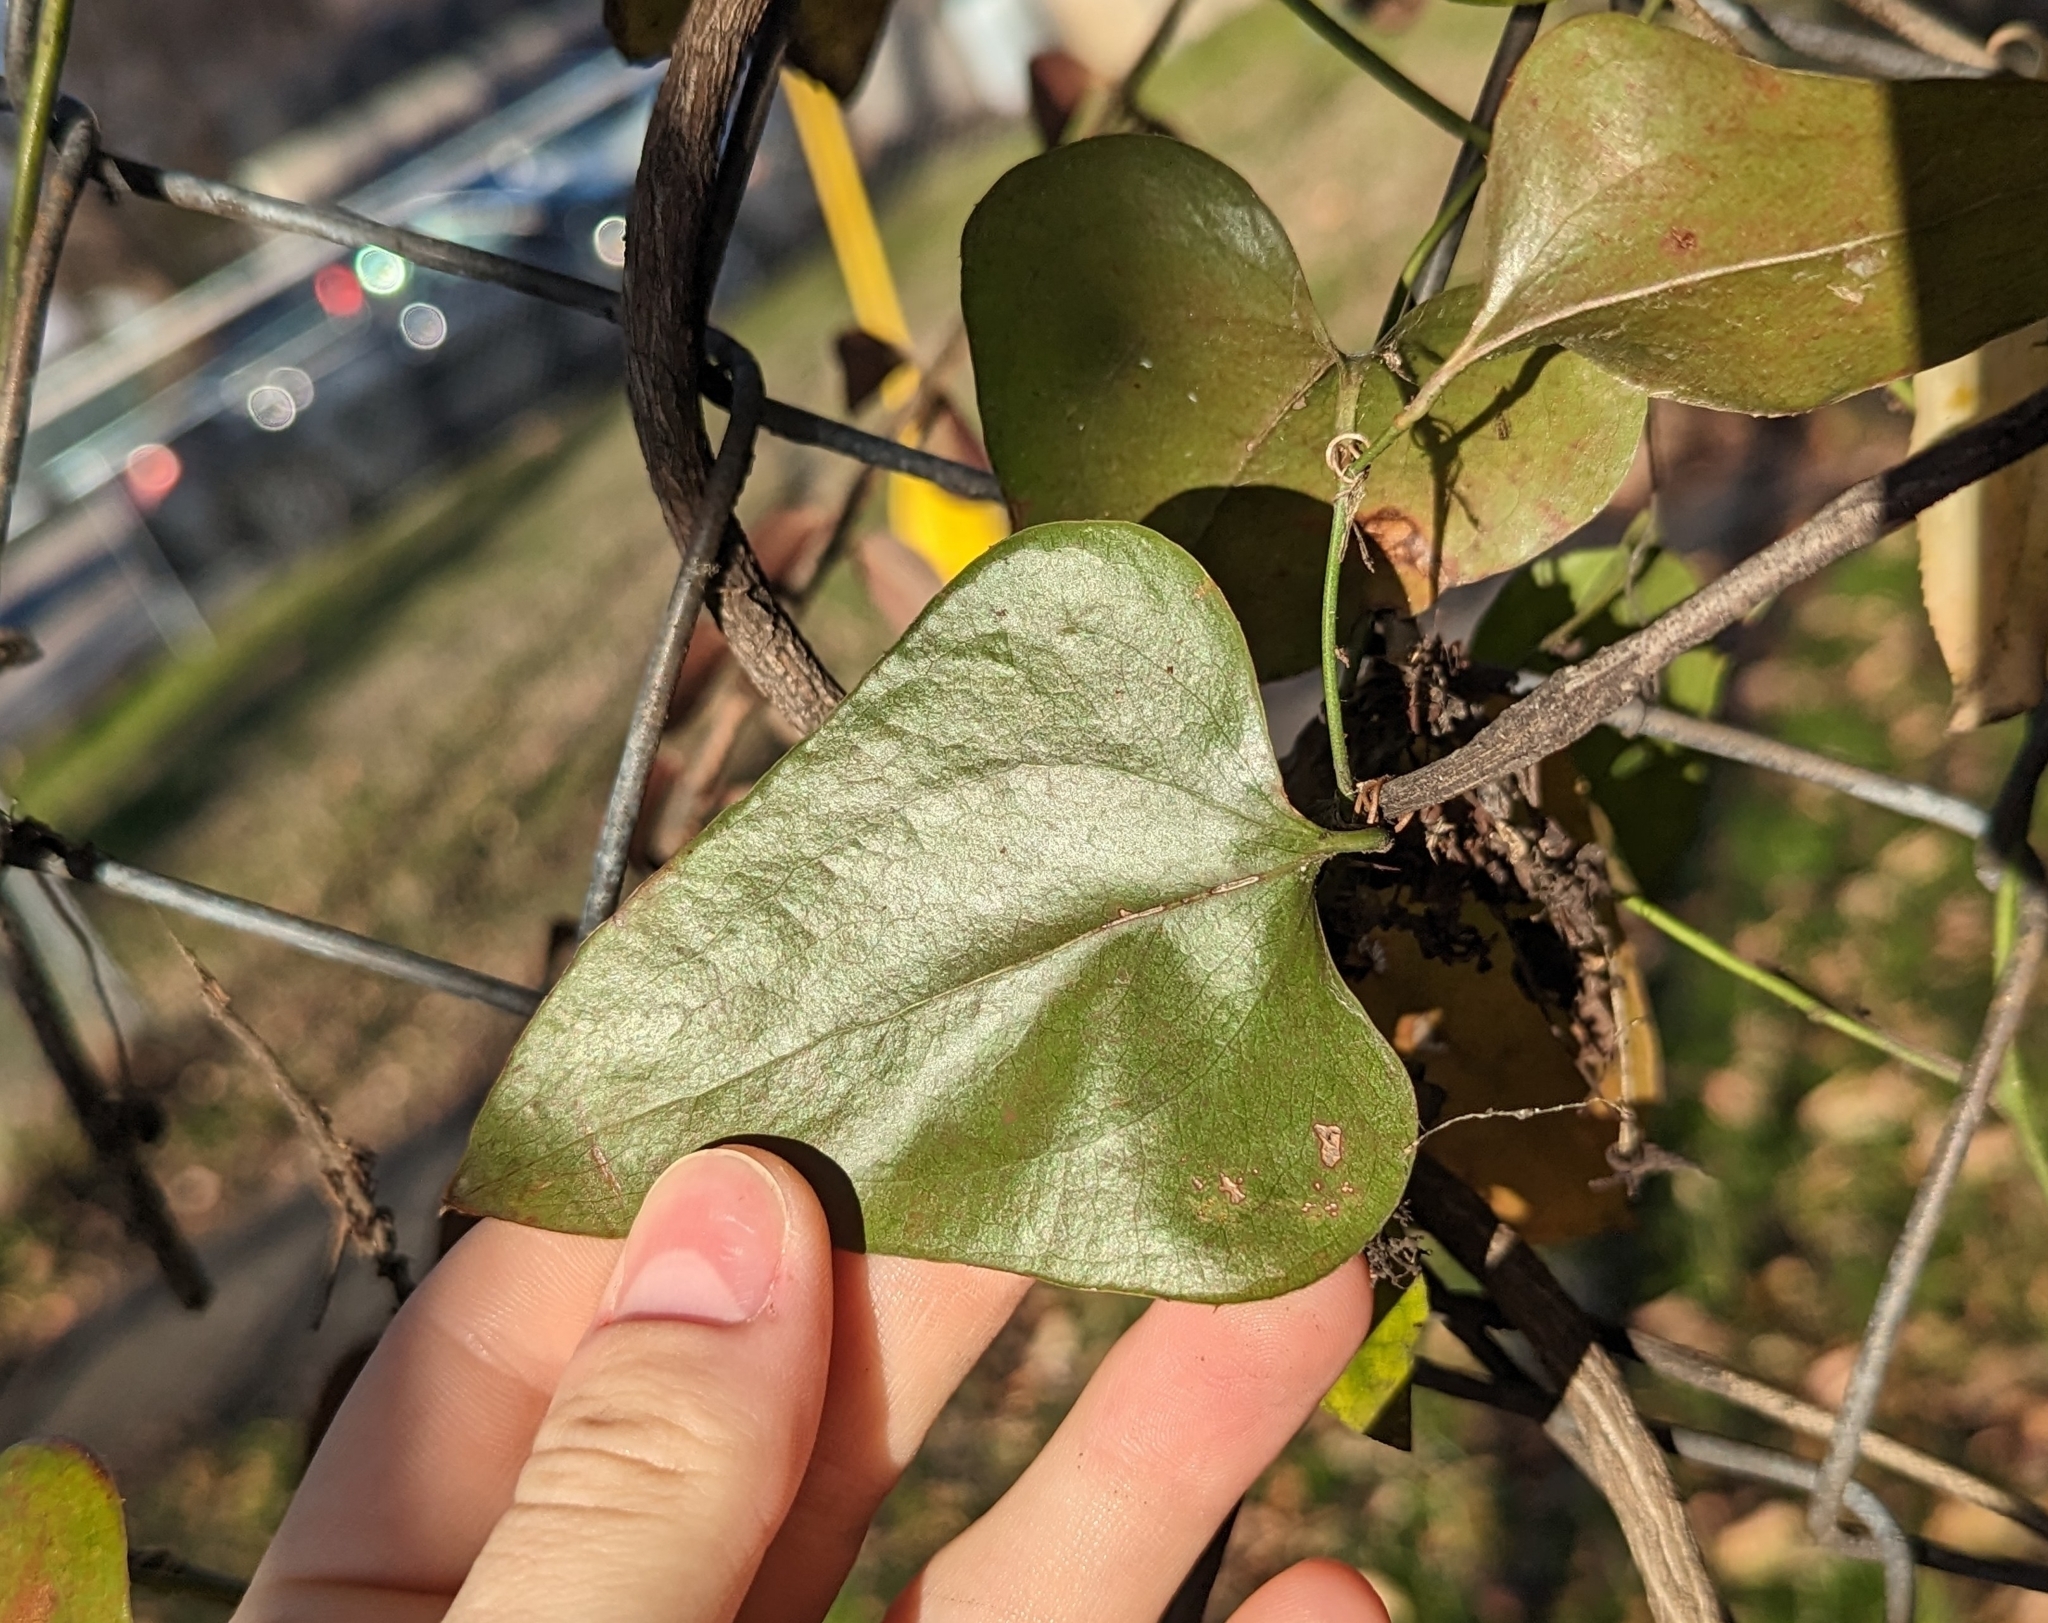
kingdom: Plantae
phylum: Tracheophyta
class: Liliopsida
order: Liliales
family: Smilacaceae
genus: Smilax
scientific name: Smilax bona-nox
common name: Catbrier
